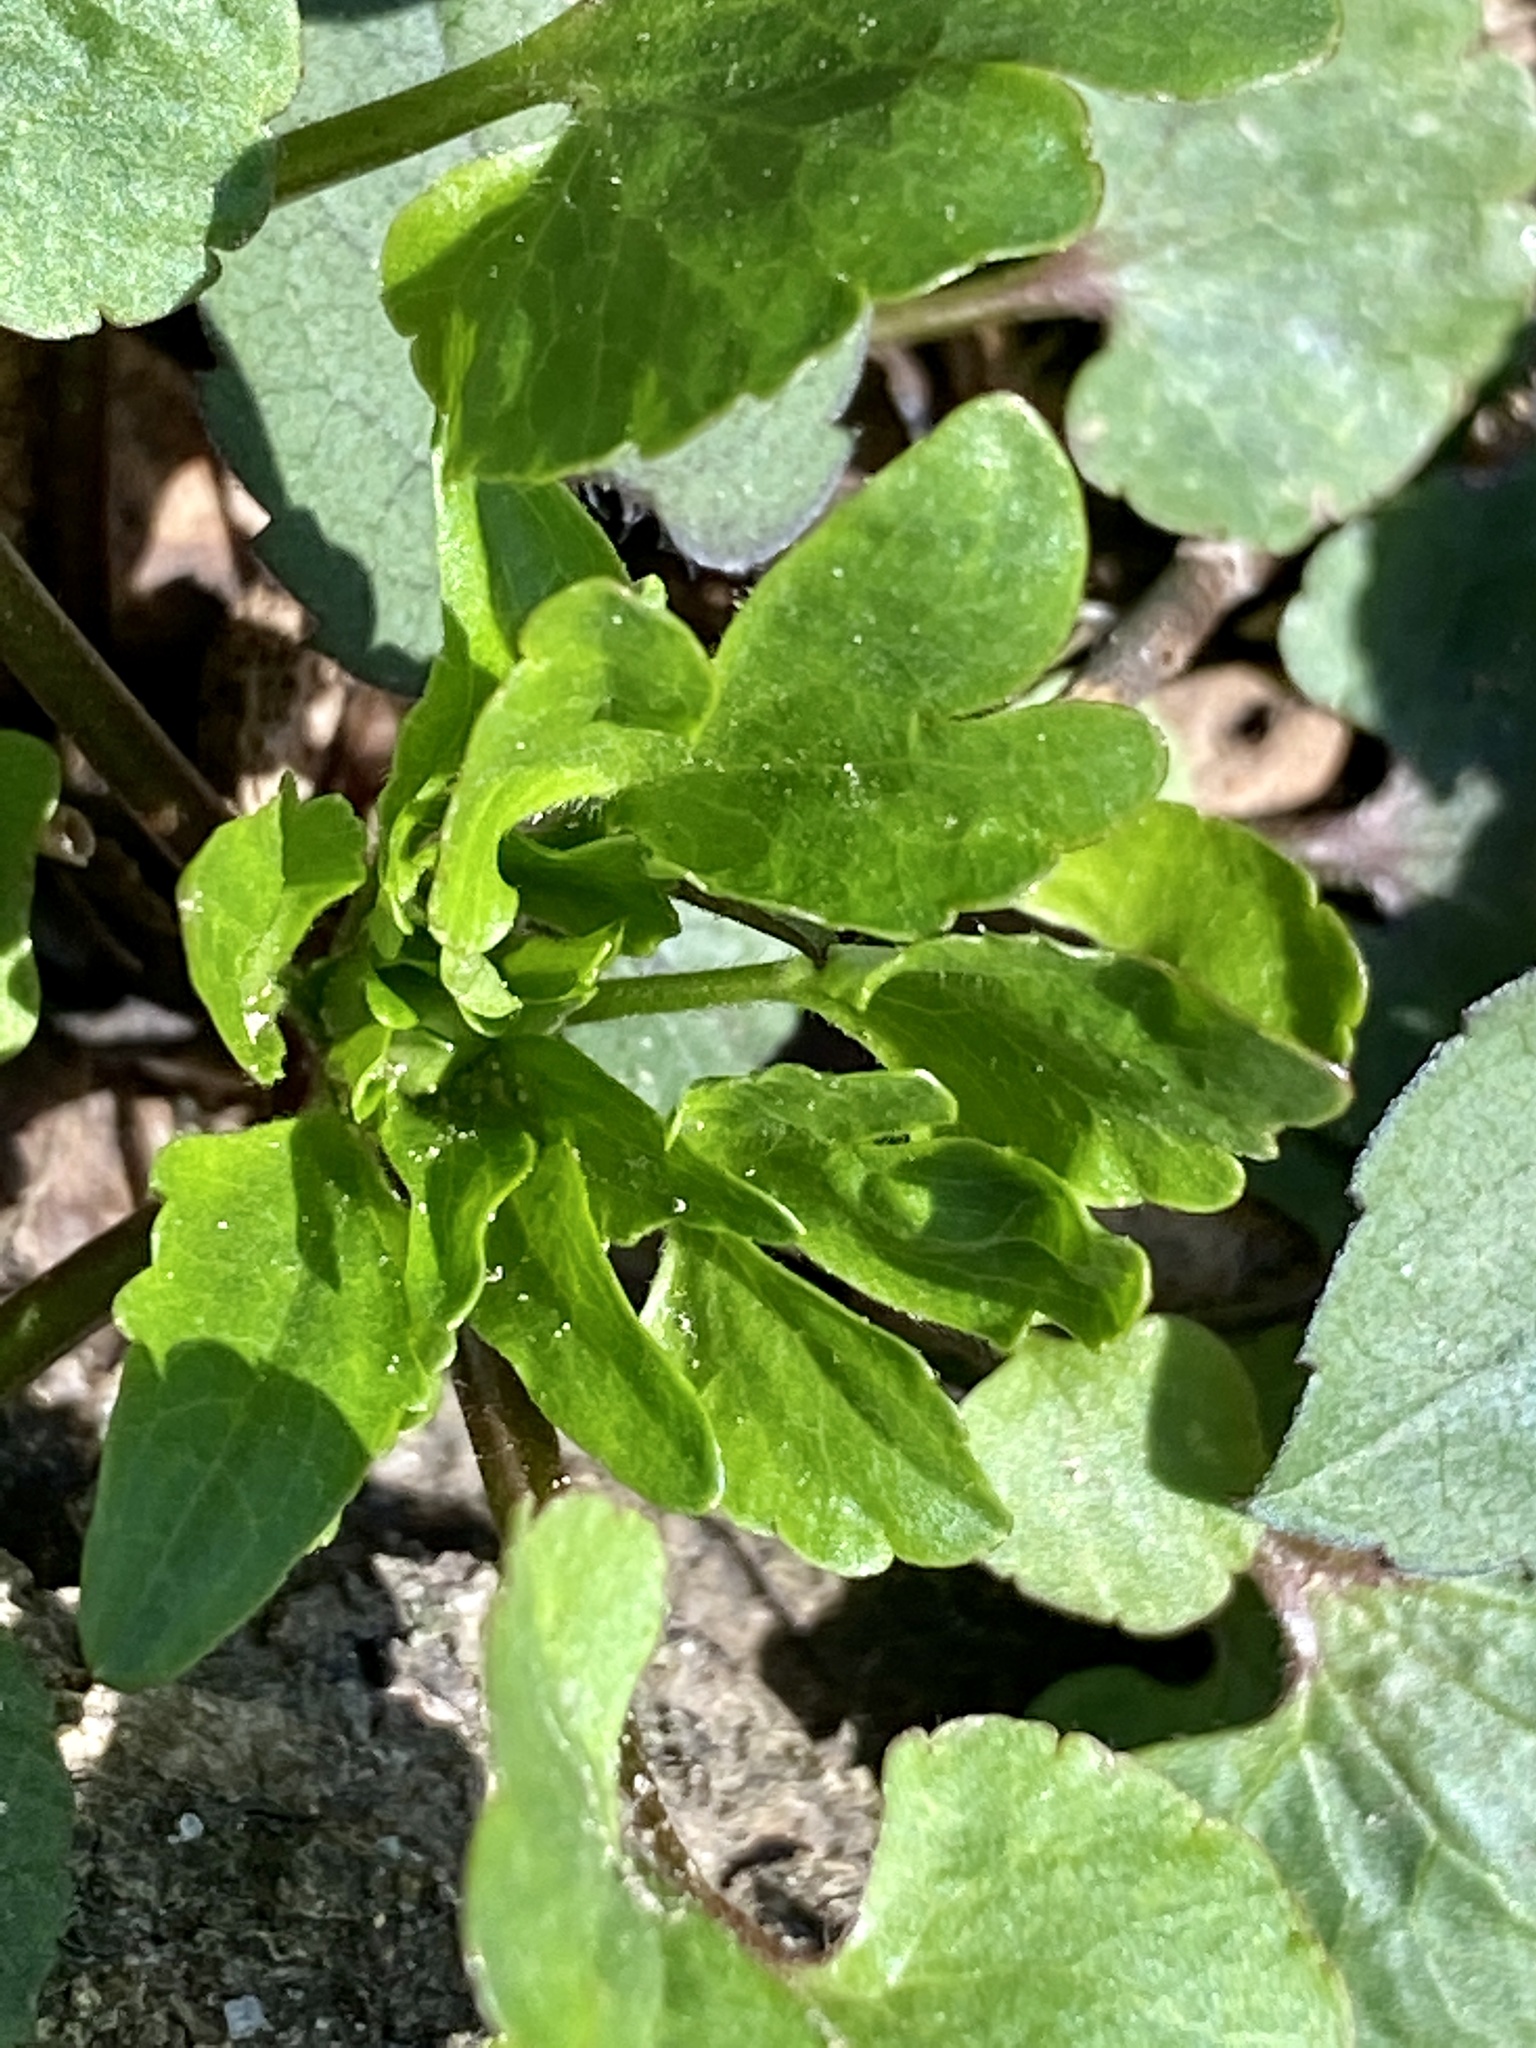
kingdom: Plantae
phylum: Tracheophyta
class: Magnoliopsida
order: Ranunculales
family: Ranunculaceae
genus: Ranunculus
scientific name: Ranunculus abortivus
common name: Early wood buttercup
